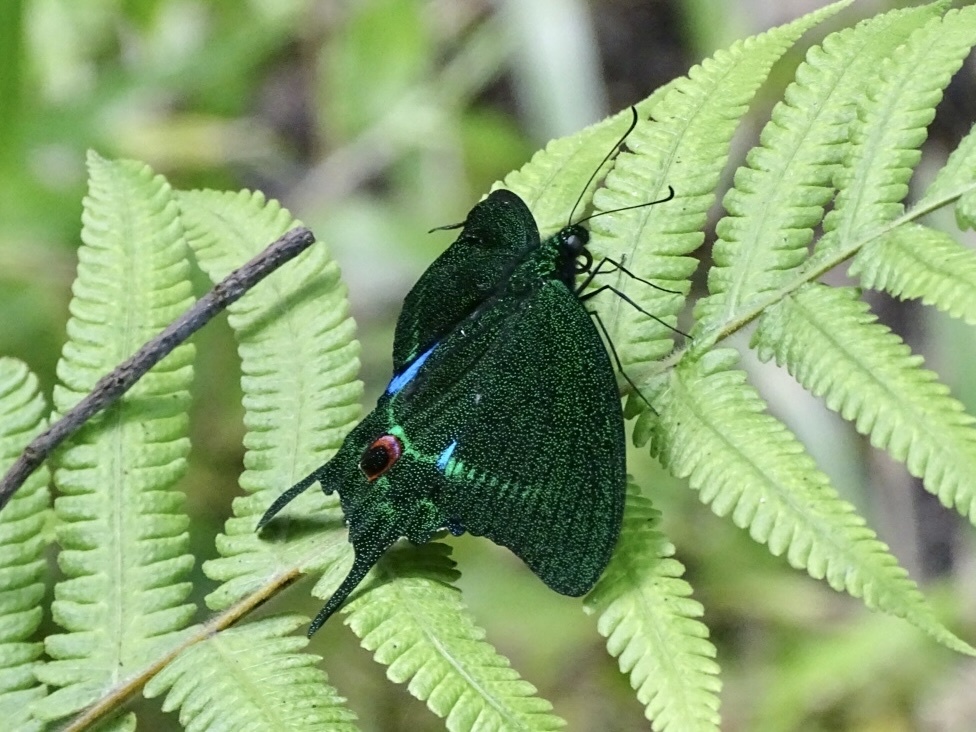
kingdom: Animalia
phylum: Arthropoda
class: Insecta
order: Lepidoptera
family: Papilionidae
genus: Papilio
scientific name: Papilio paris
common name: Paris peacock
